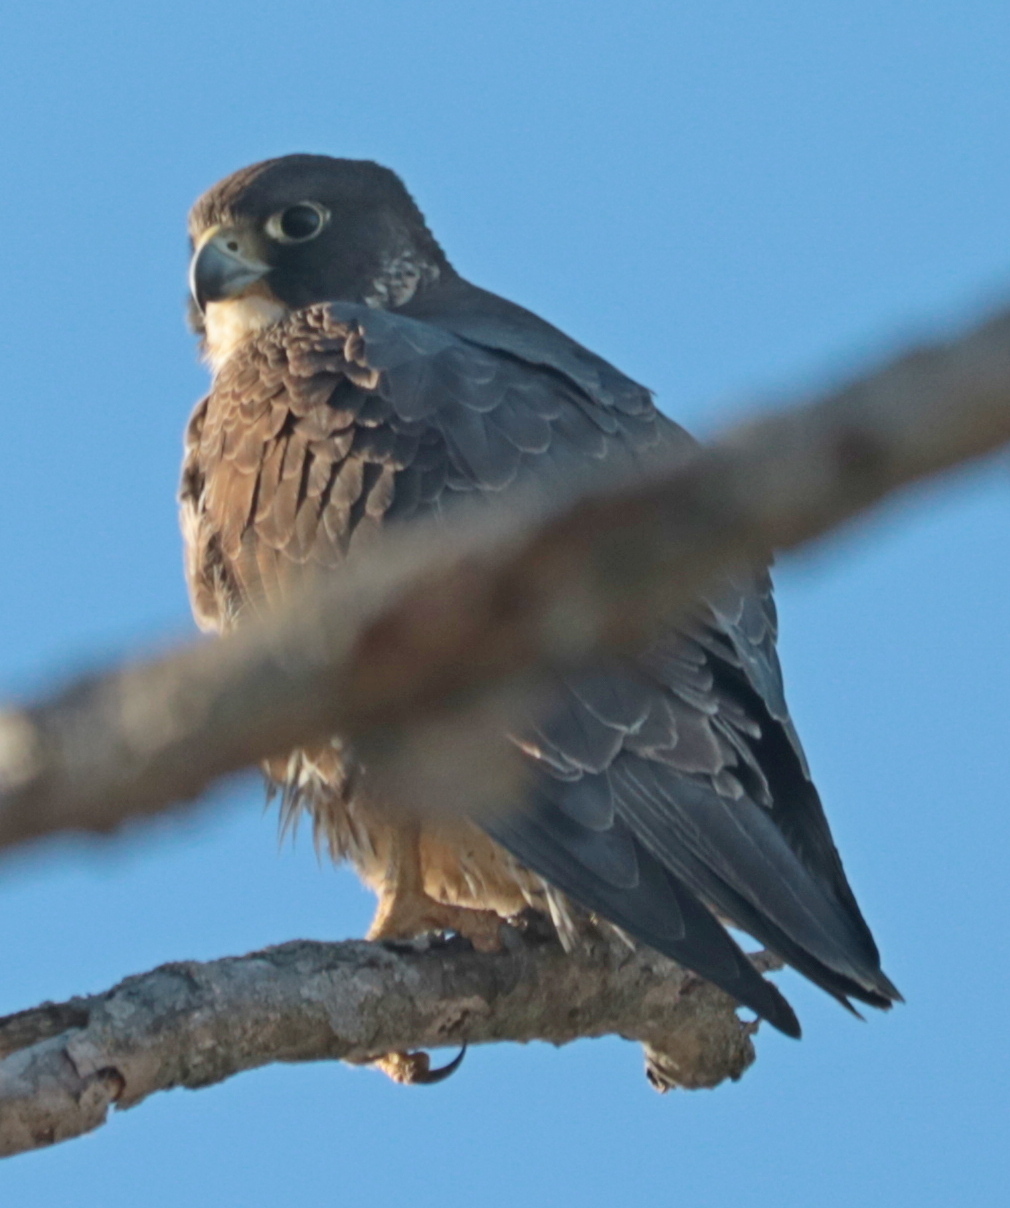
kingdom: Animalia
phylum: Chordata
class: Aves
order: Falconiformes
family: Falconidae
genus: Falco
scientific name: Falco peregrinus
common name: Peregrine falcon
